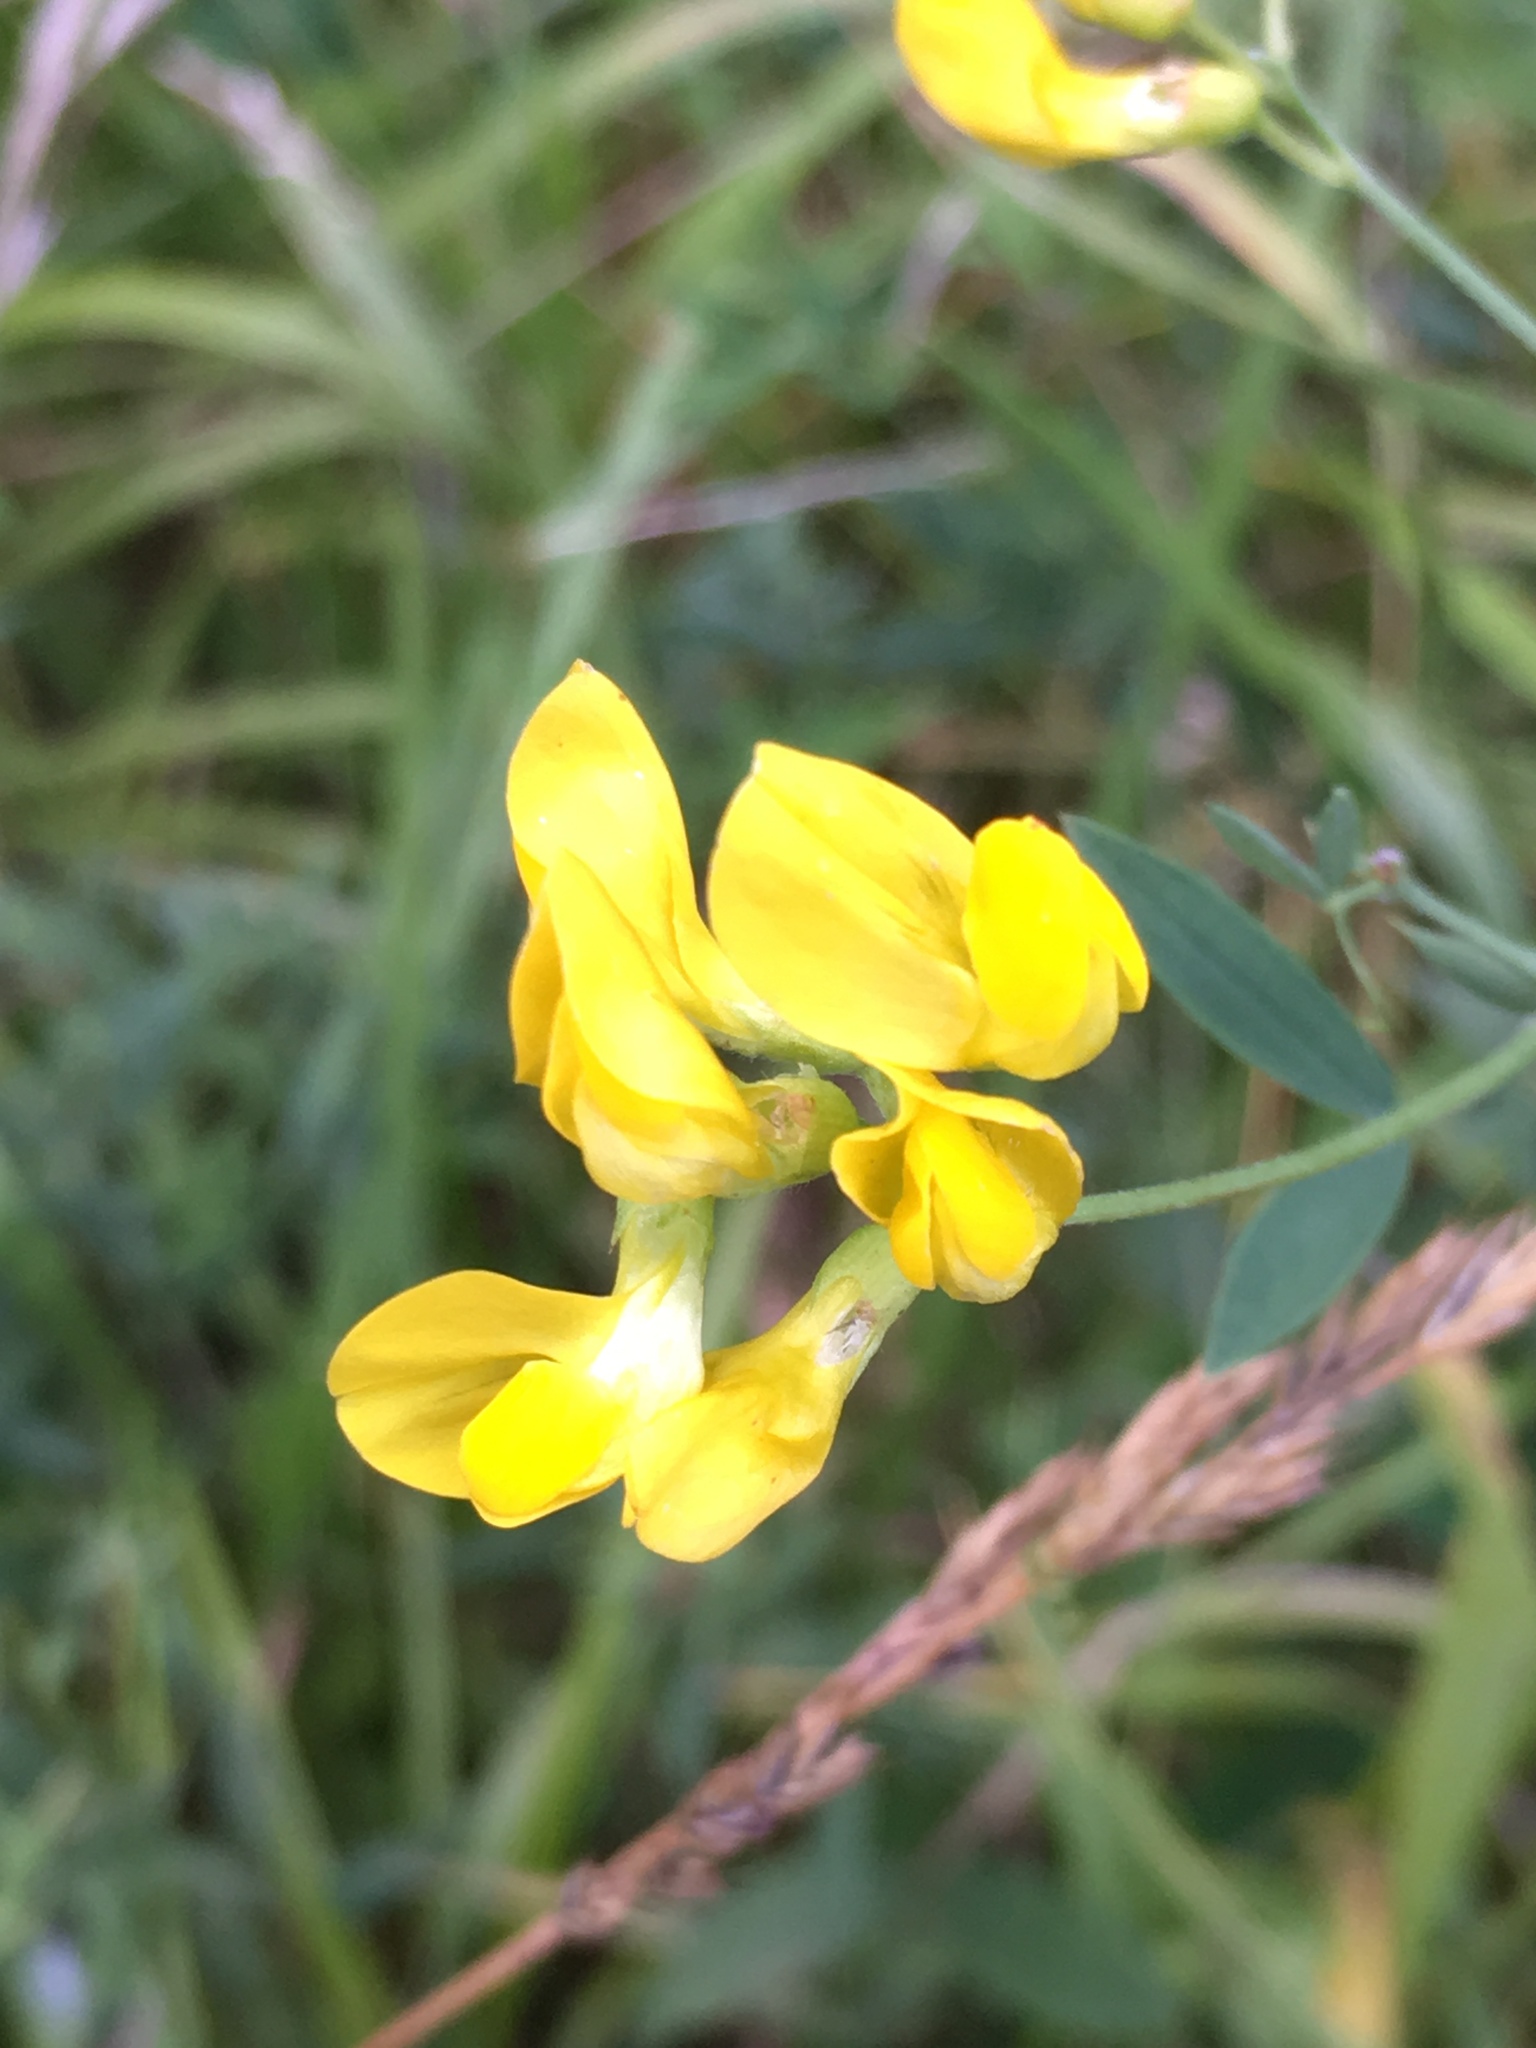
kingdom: Plantae
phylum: Tracheophyta
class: Magnoliopsida
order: Fabales
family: Fabaceae
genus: Lathyrus
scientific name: Lathyrus pratensis
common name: Meadow vetchling
